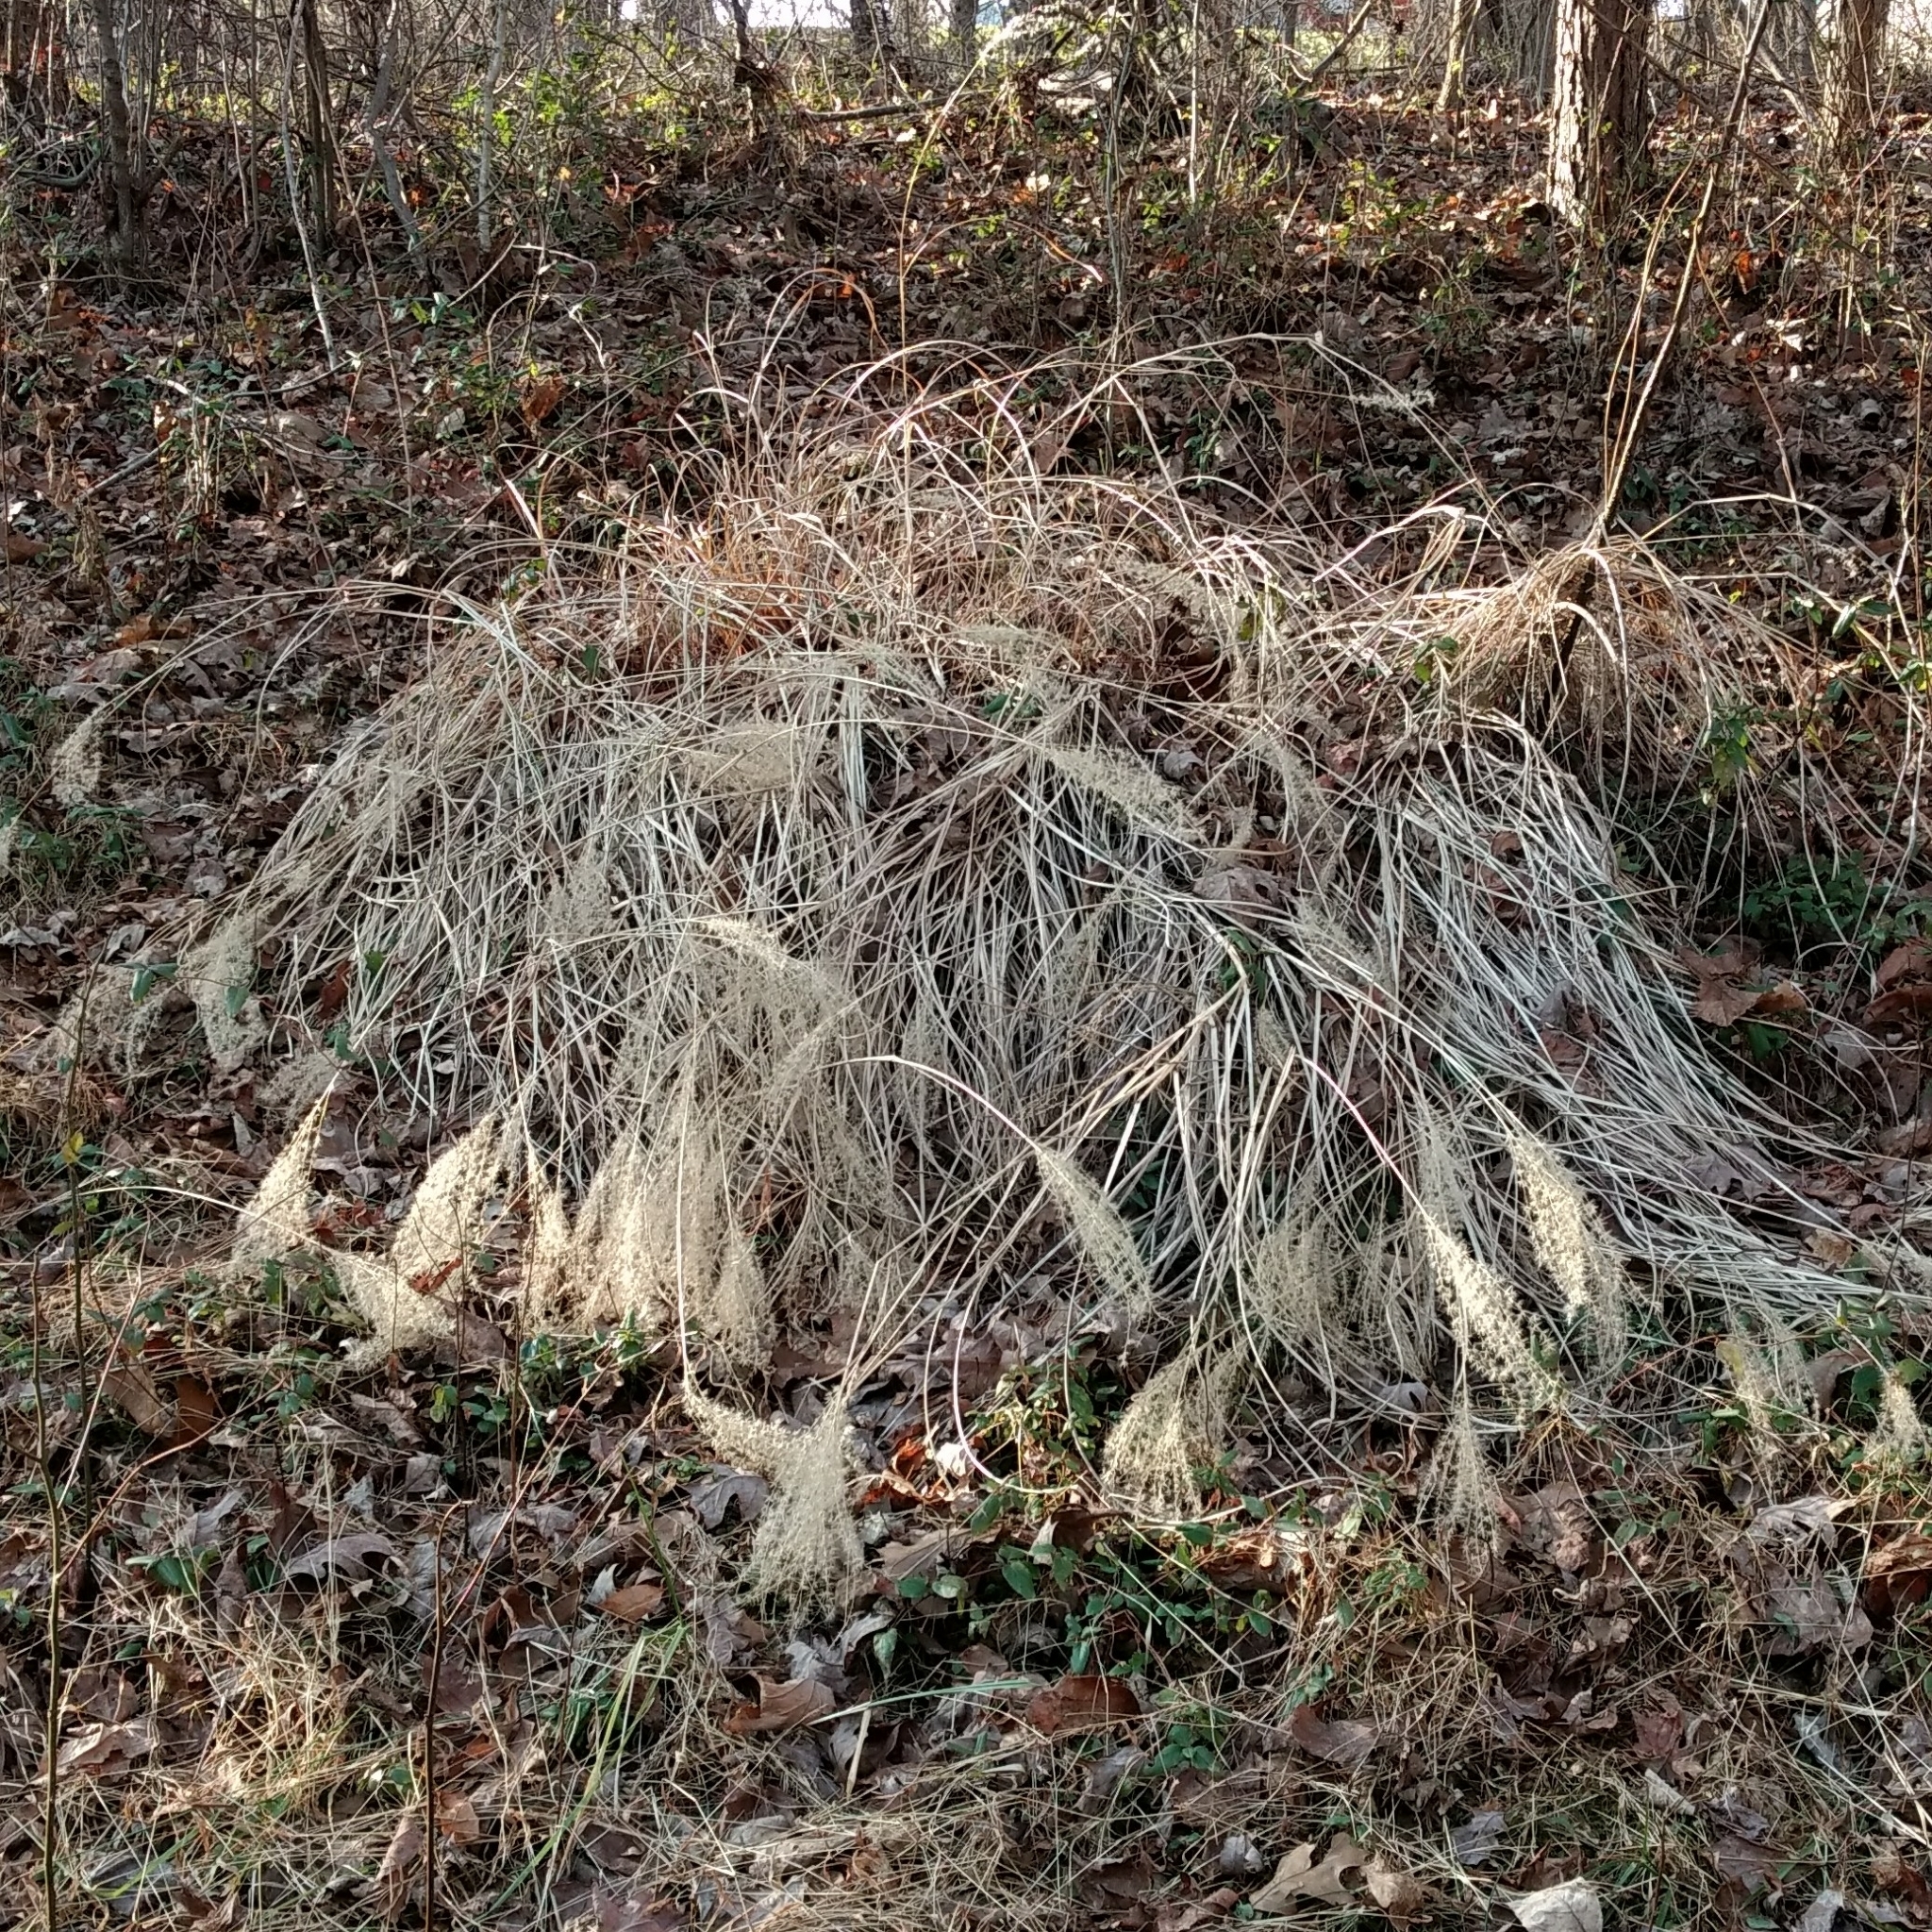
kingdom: Plantae
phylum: Tracheophyta
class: Liliopsida
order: Poales
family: Poaceae
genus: Miscanthus
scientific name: Miscanthus sinensis
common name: Chinese silvergrass
